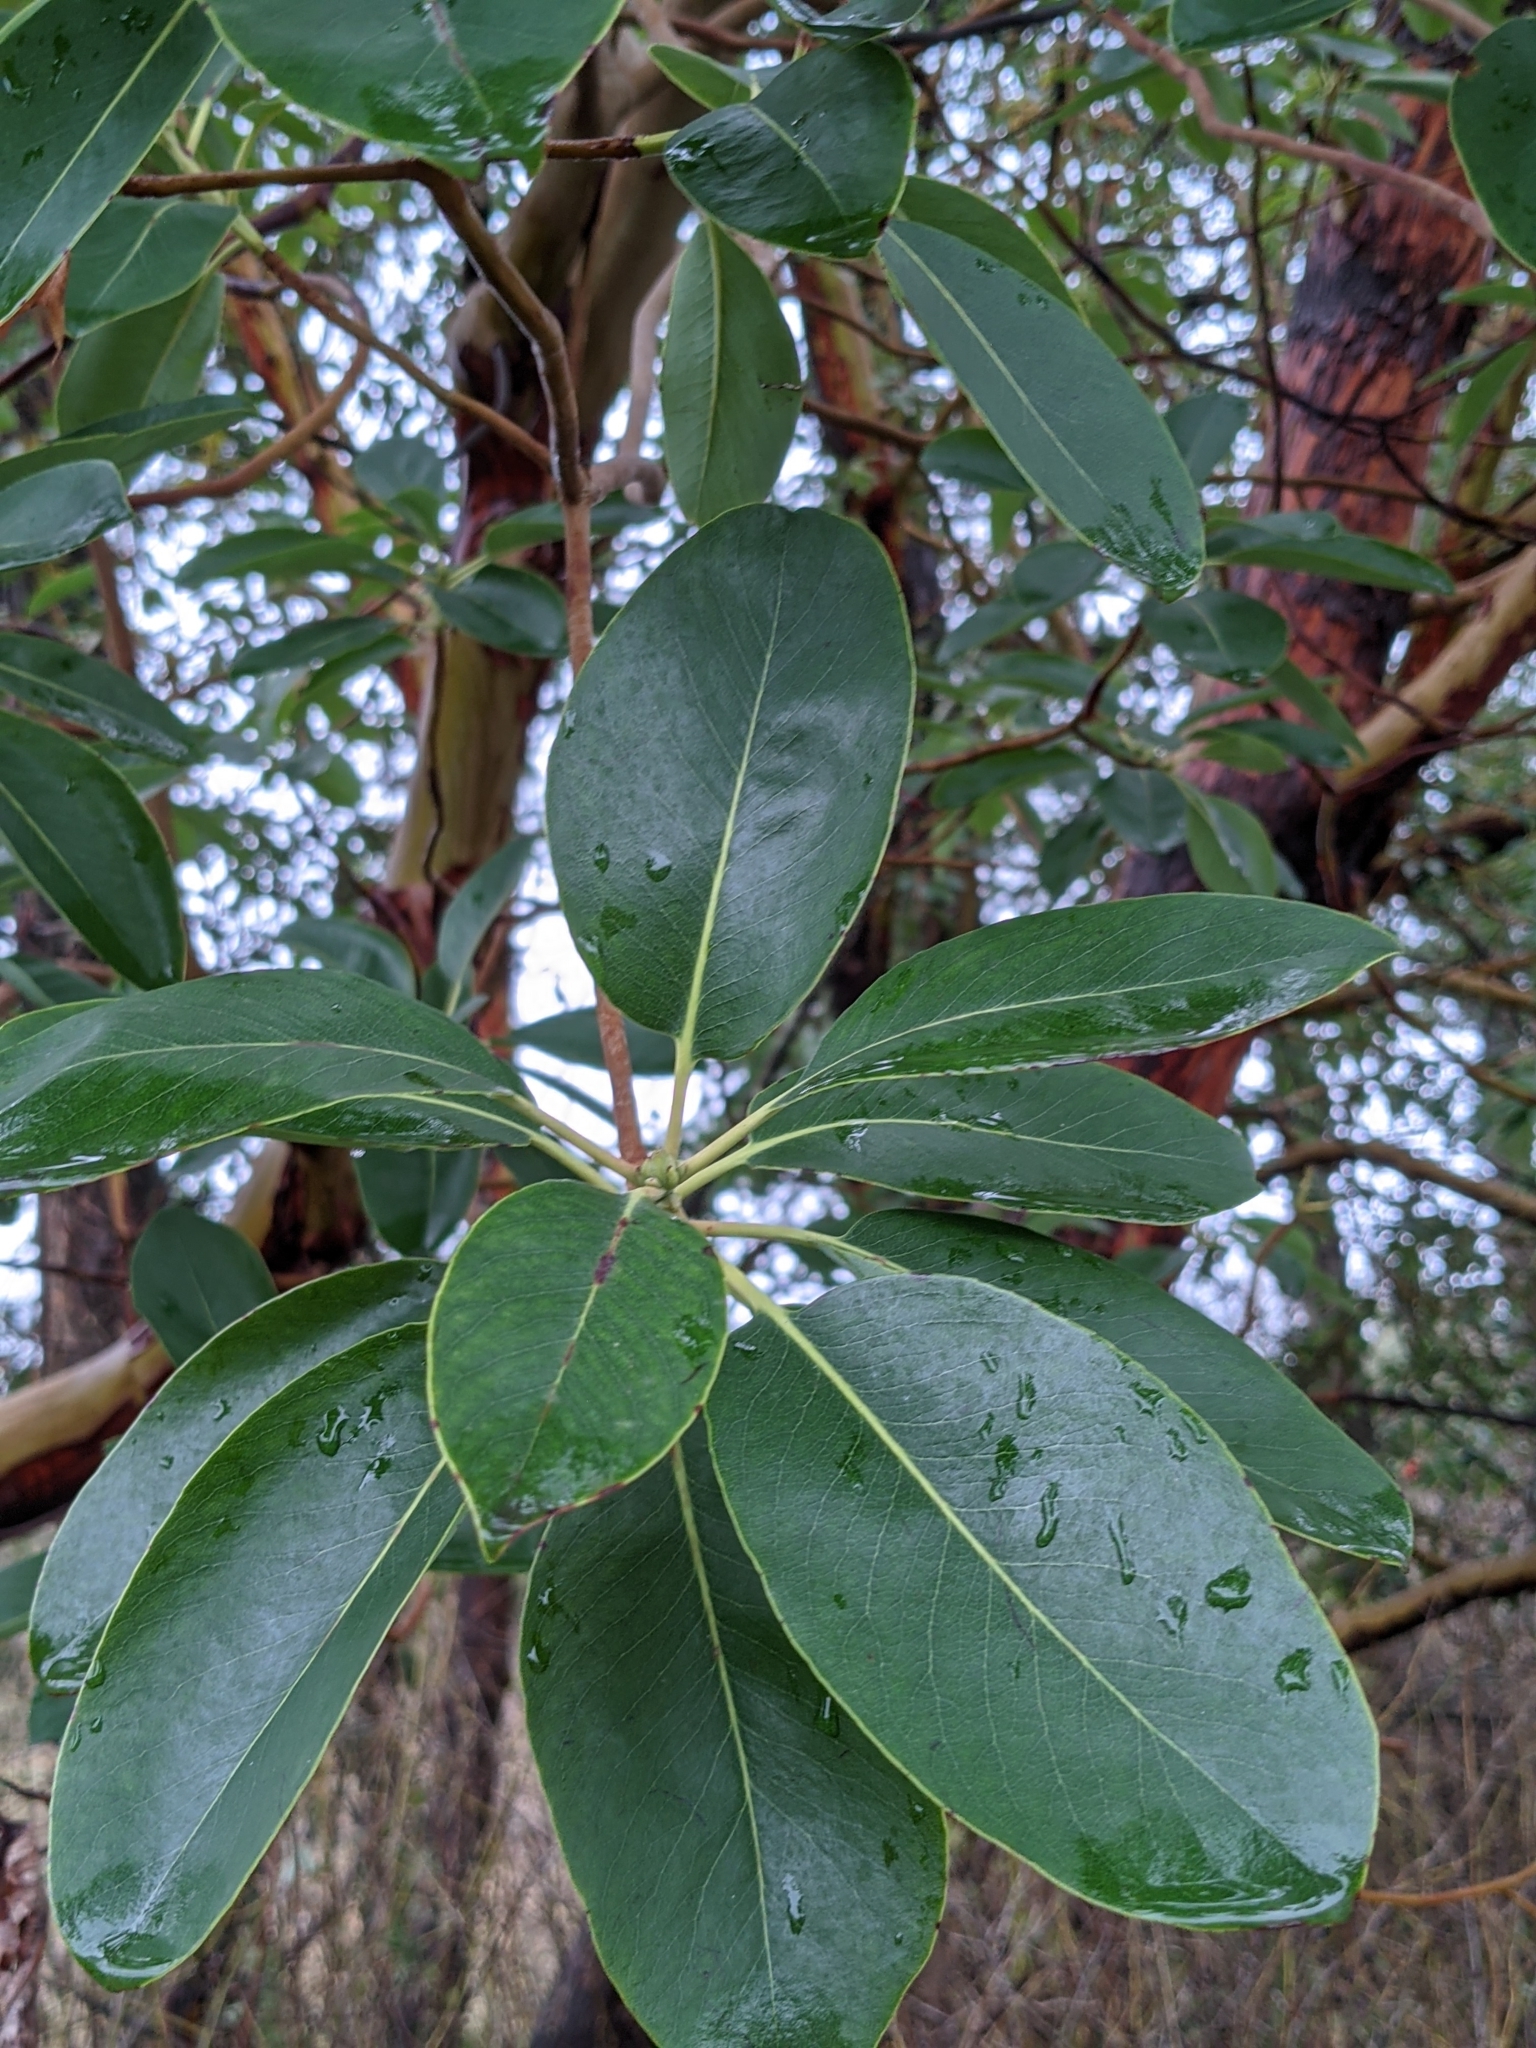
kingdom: Plantae
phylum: Tracheophyta
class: Magnoliopsida
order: Ericales
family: Ericaceae
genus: Arbutus
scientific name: Arbutus menziesii
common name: Pacific madrone
